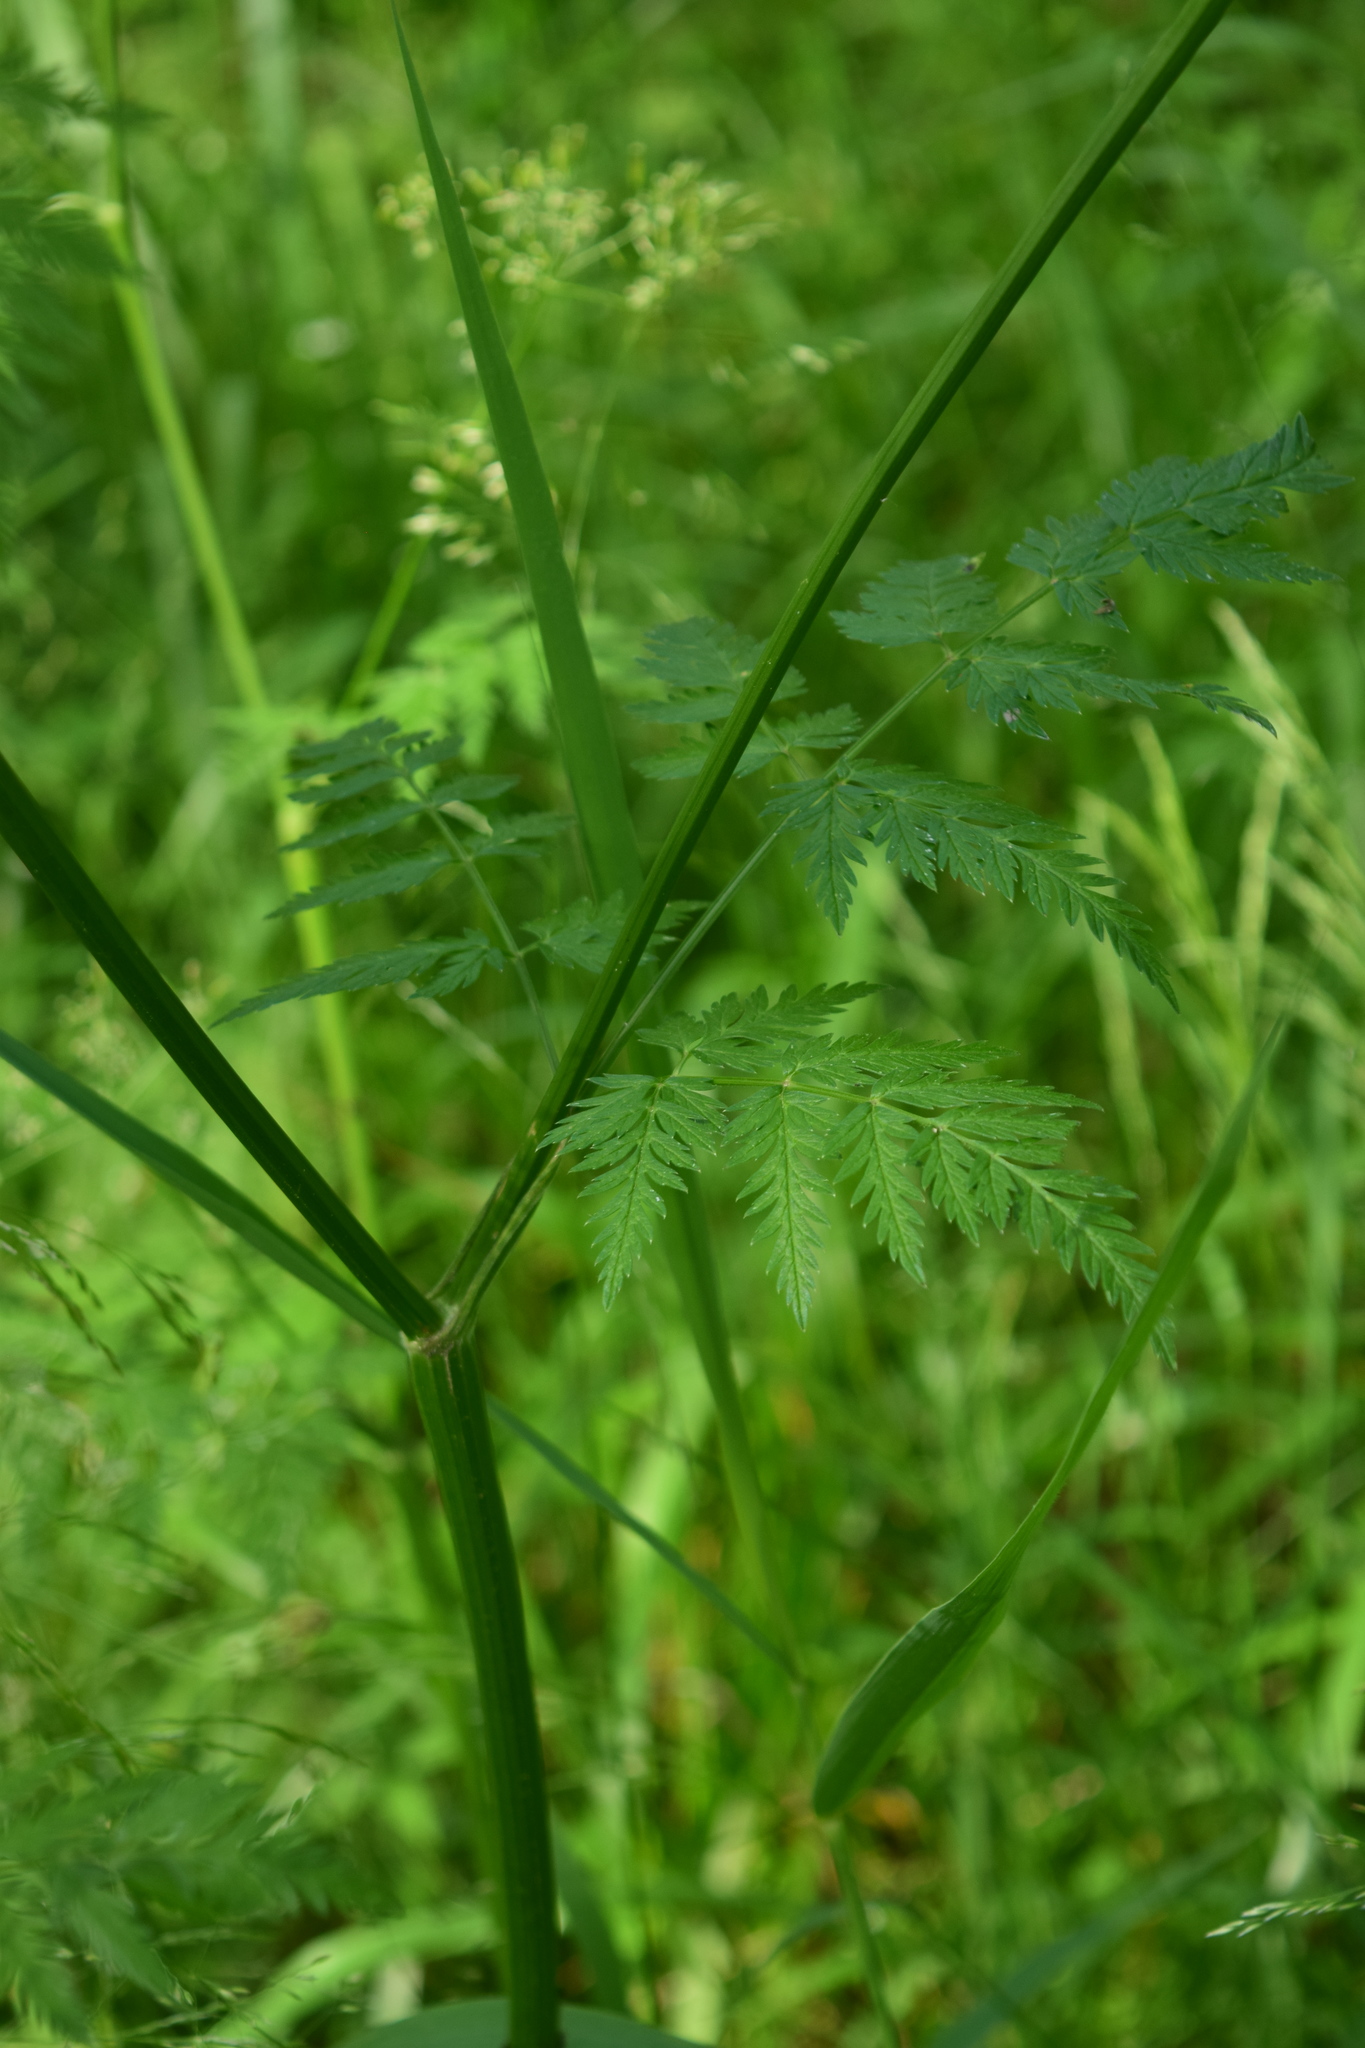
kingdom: Plantae
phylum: Tracheophyta
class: Magnoliopsida
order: Apiales
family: Apiaceae
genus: Anthriscus
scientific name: Anthriscus sylvestris
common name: Cow parsley
